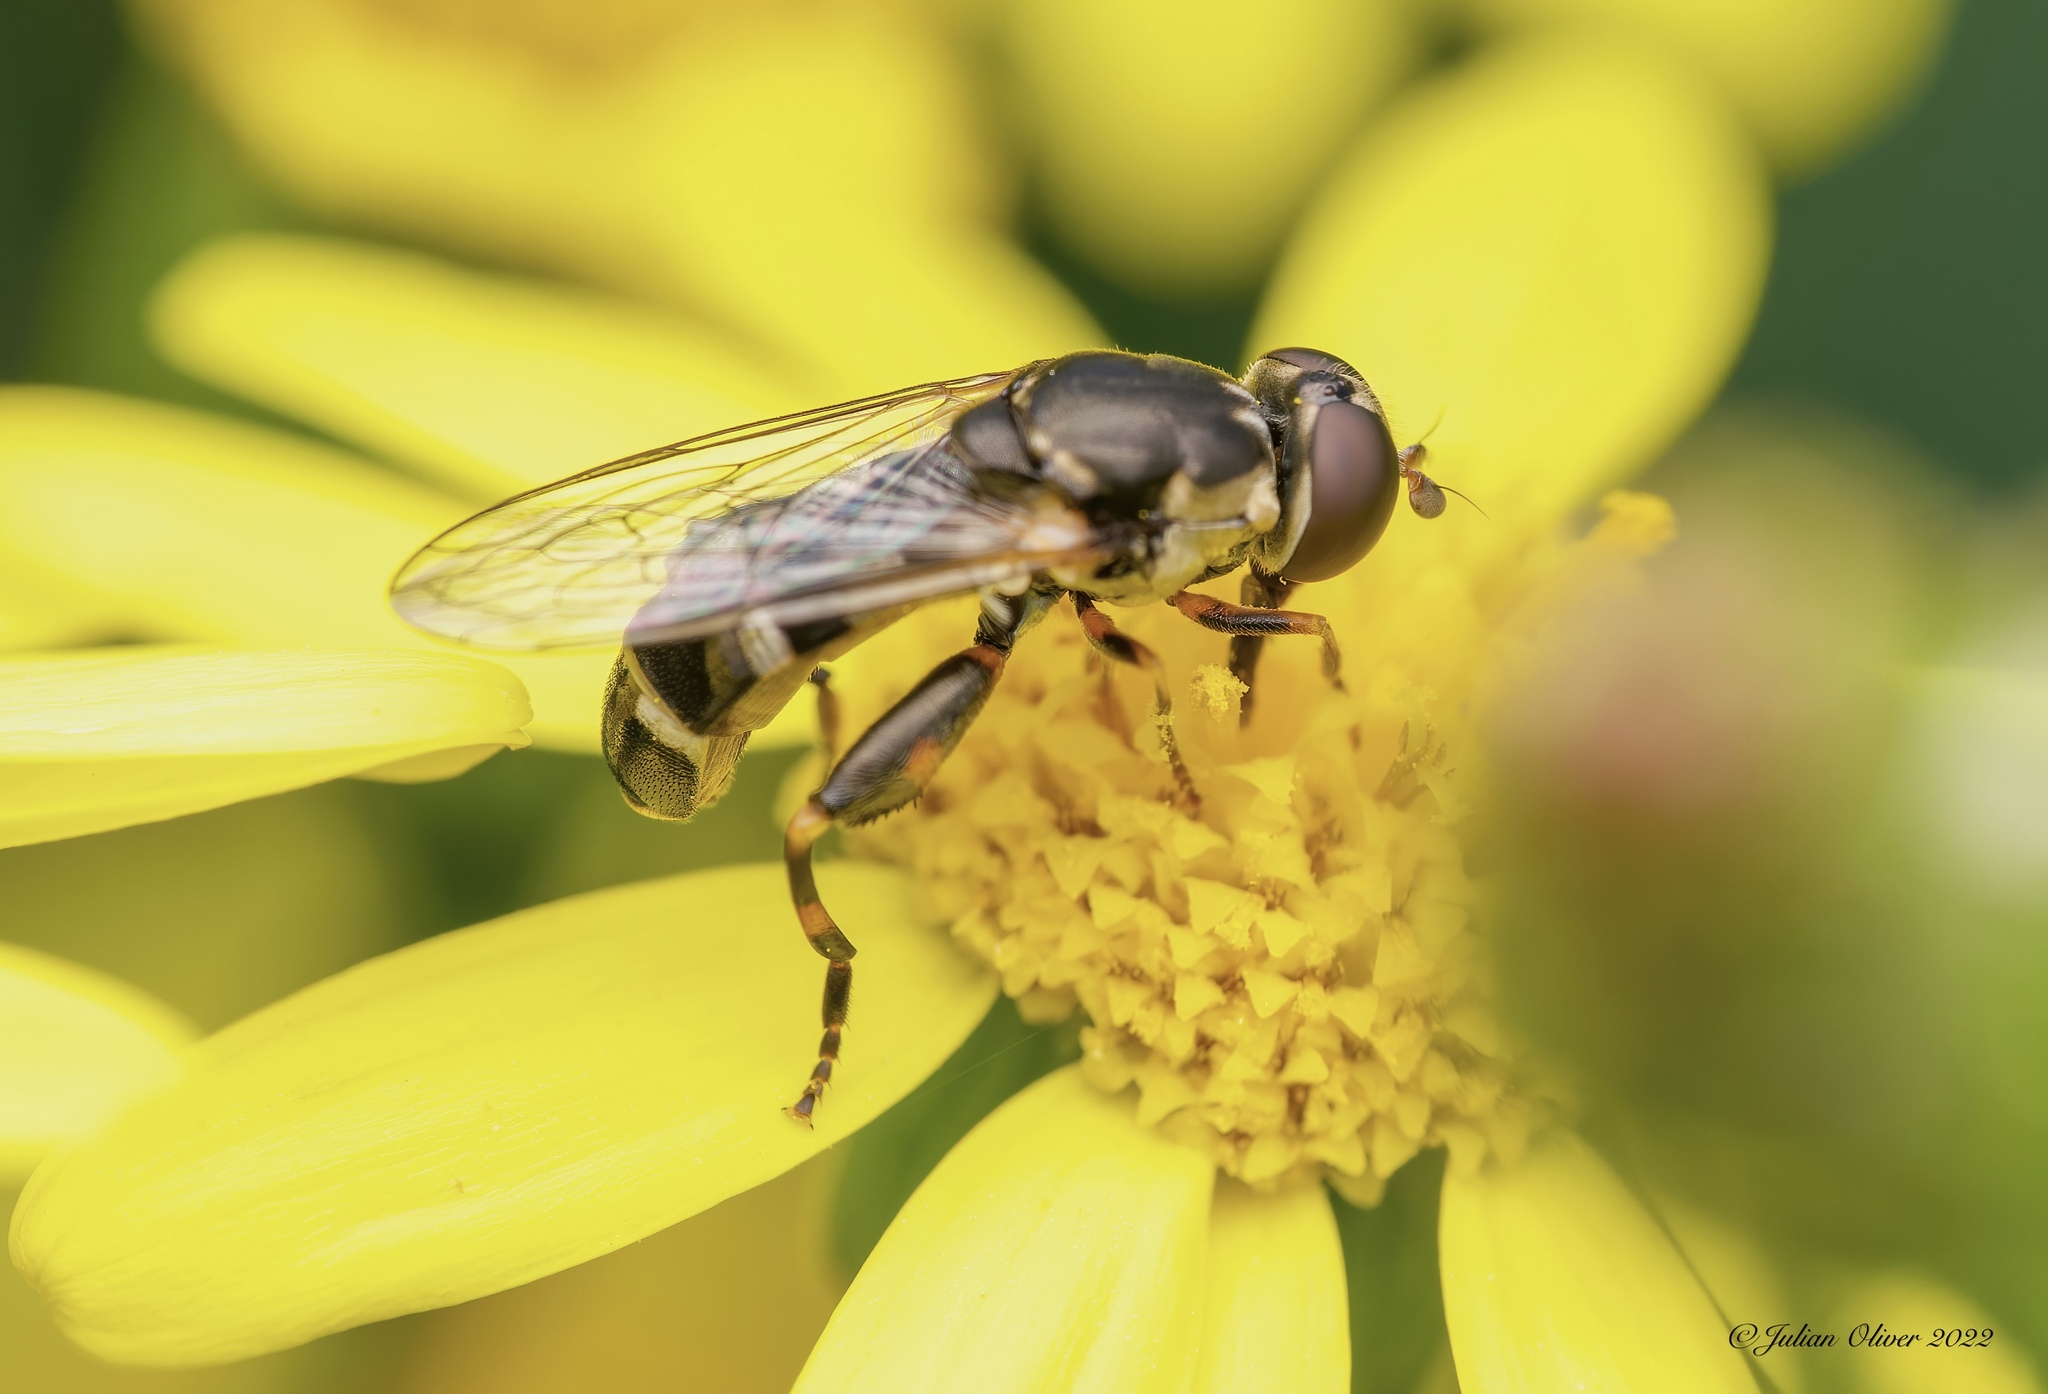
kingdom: Animalia
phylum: Arthropoda
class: Insecta
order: Diptera
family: Syrphidae
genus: Syritta
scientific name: Syritta pipiens
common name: Hover fly
